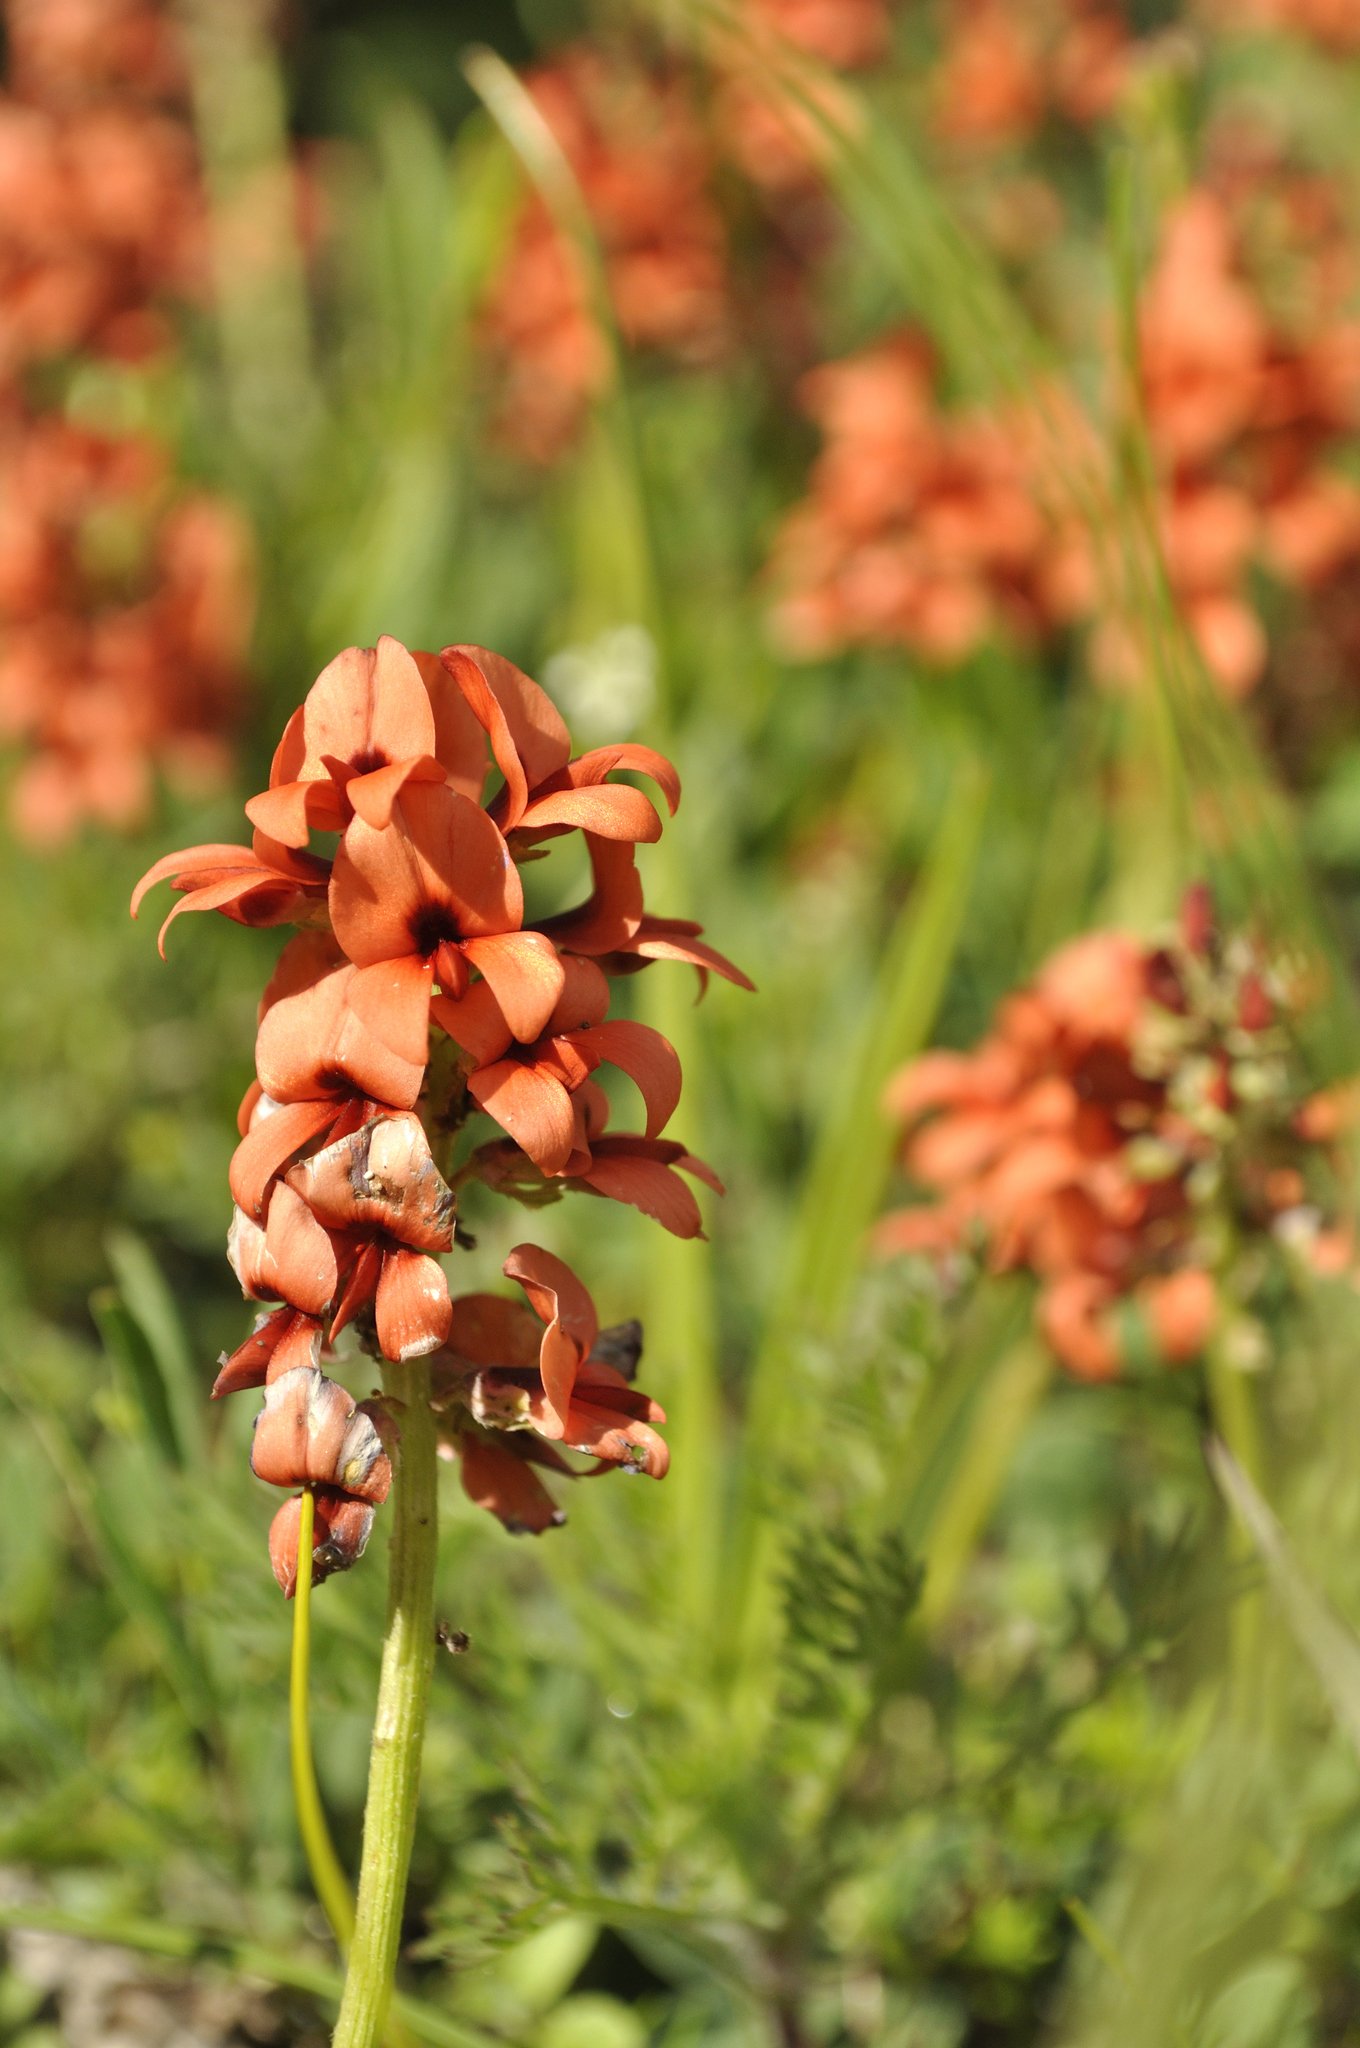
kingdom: Plantae
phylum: Tracheophyta
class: Magnoliopsida
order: Fabales
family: Fabaceae
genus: Indigofera
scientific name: Indigofera
